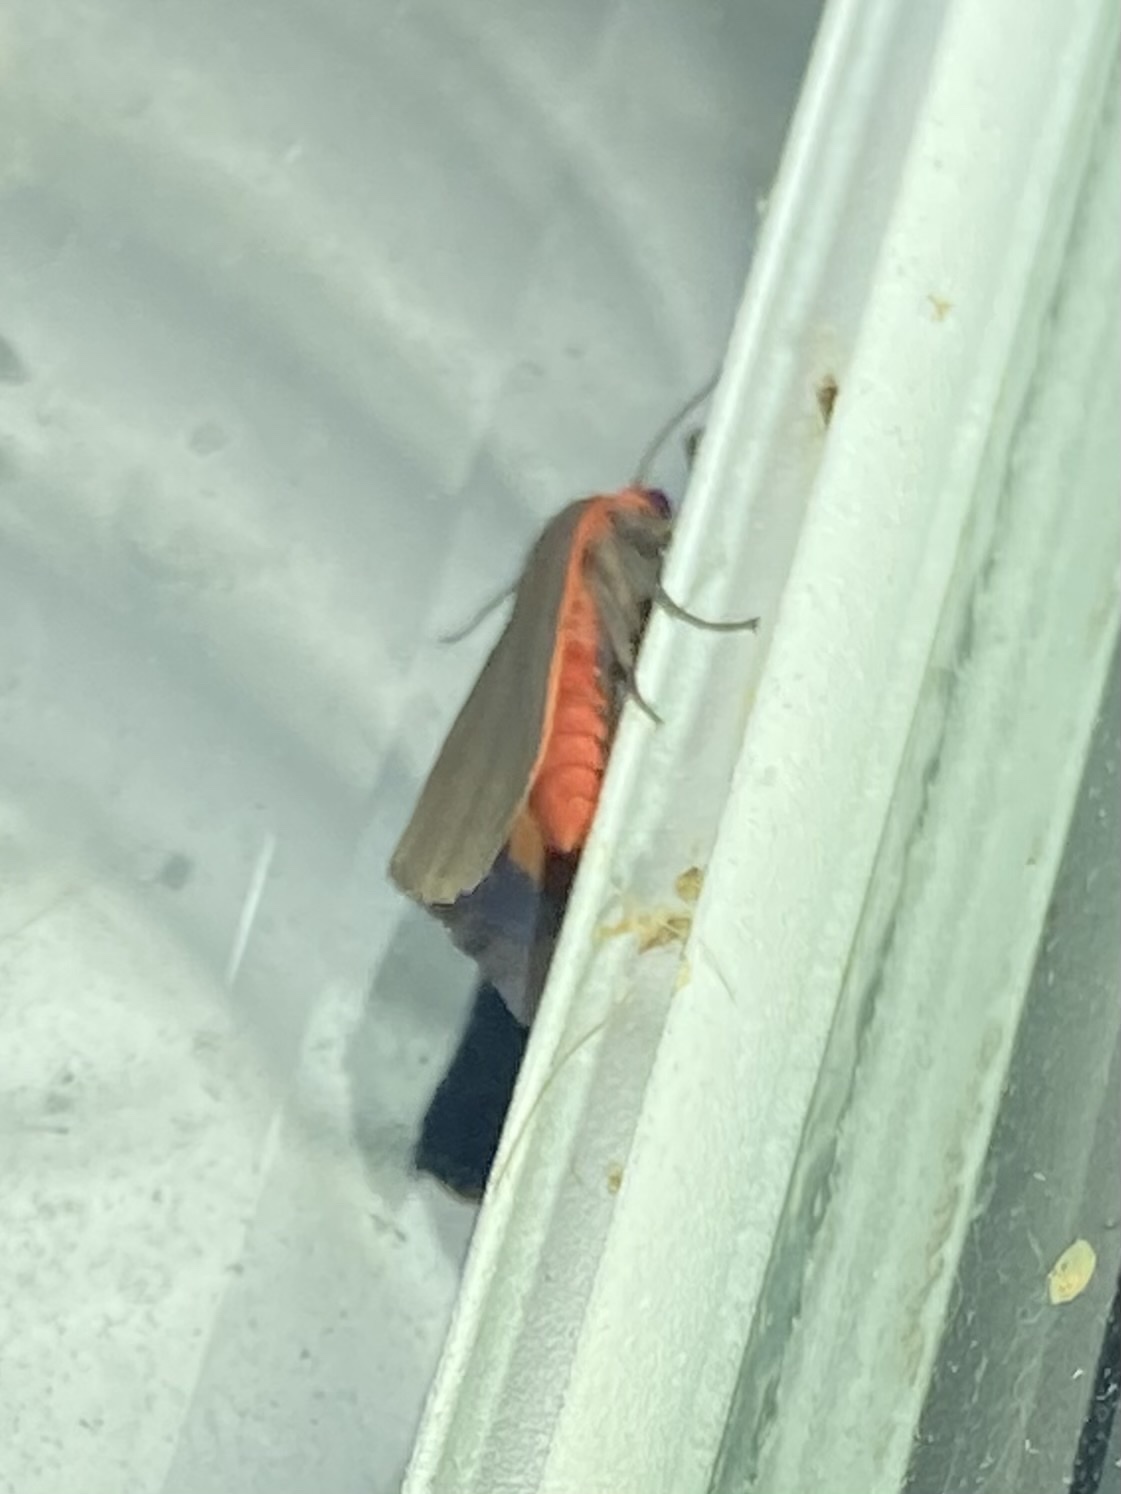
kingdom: Animalia
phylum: Arthropoda
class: Insecta
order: Lepidoptera
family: Erebidae
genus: Virbia
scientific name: Virbia laeta
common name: Joyful holomelina moth
